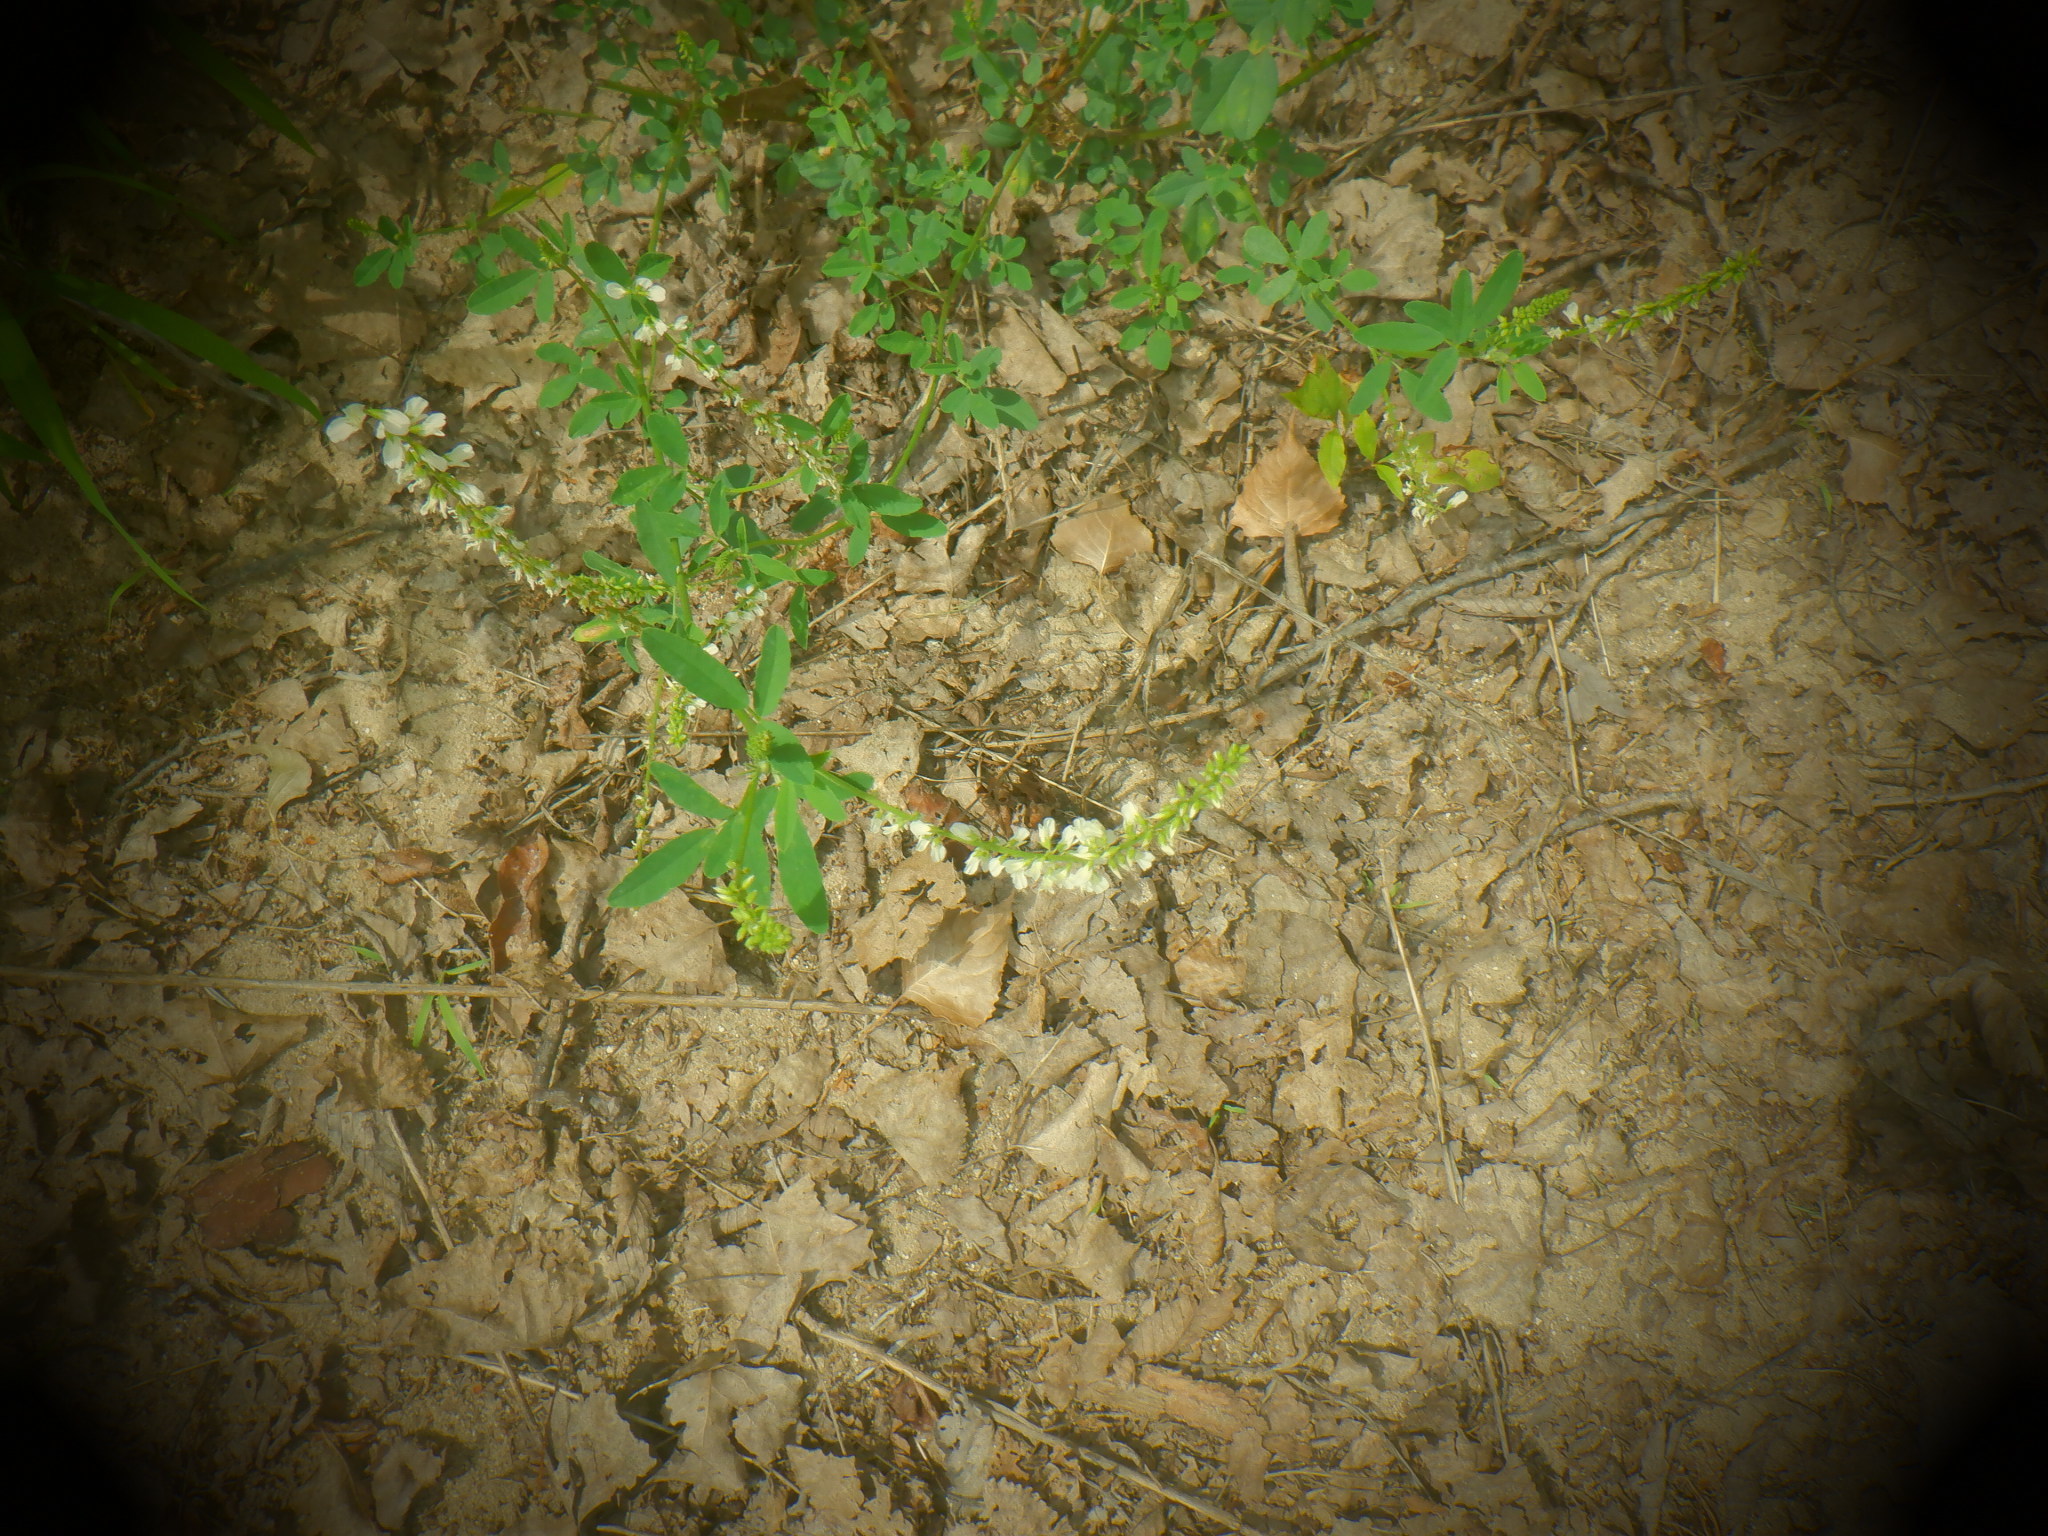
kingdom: Plantae
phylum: Tracheophyta
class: Magnoliopsida
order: Fabales
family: Fabaceae
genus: Melilotus
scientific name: Melilotus albus
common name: White melilot
